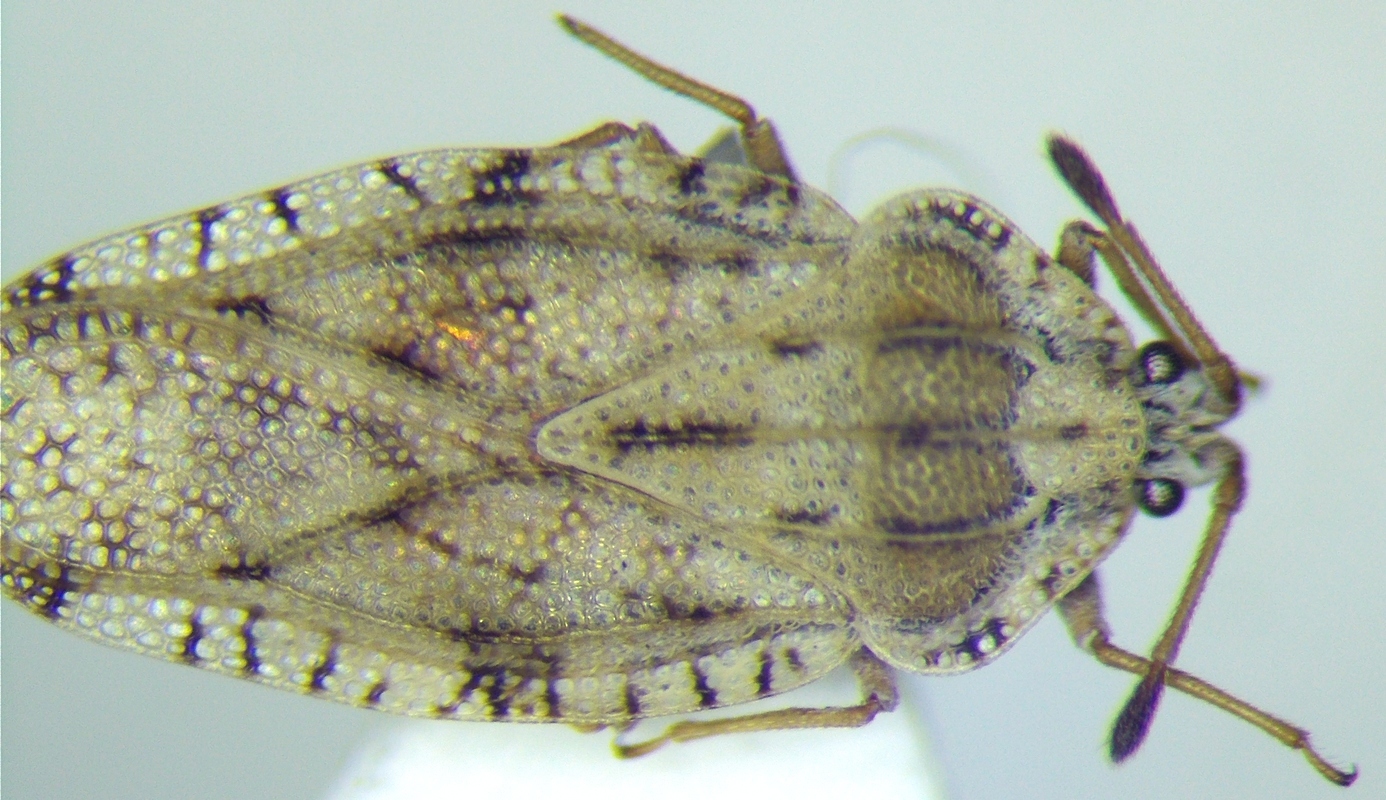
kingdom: Animalia
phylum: Arthropoda
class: Insecta
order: Hemiptera
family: Tingidae
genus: Tingis
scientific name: Tingis cardui
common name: Spear thistle lacebug
